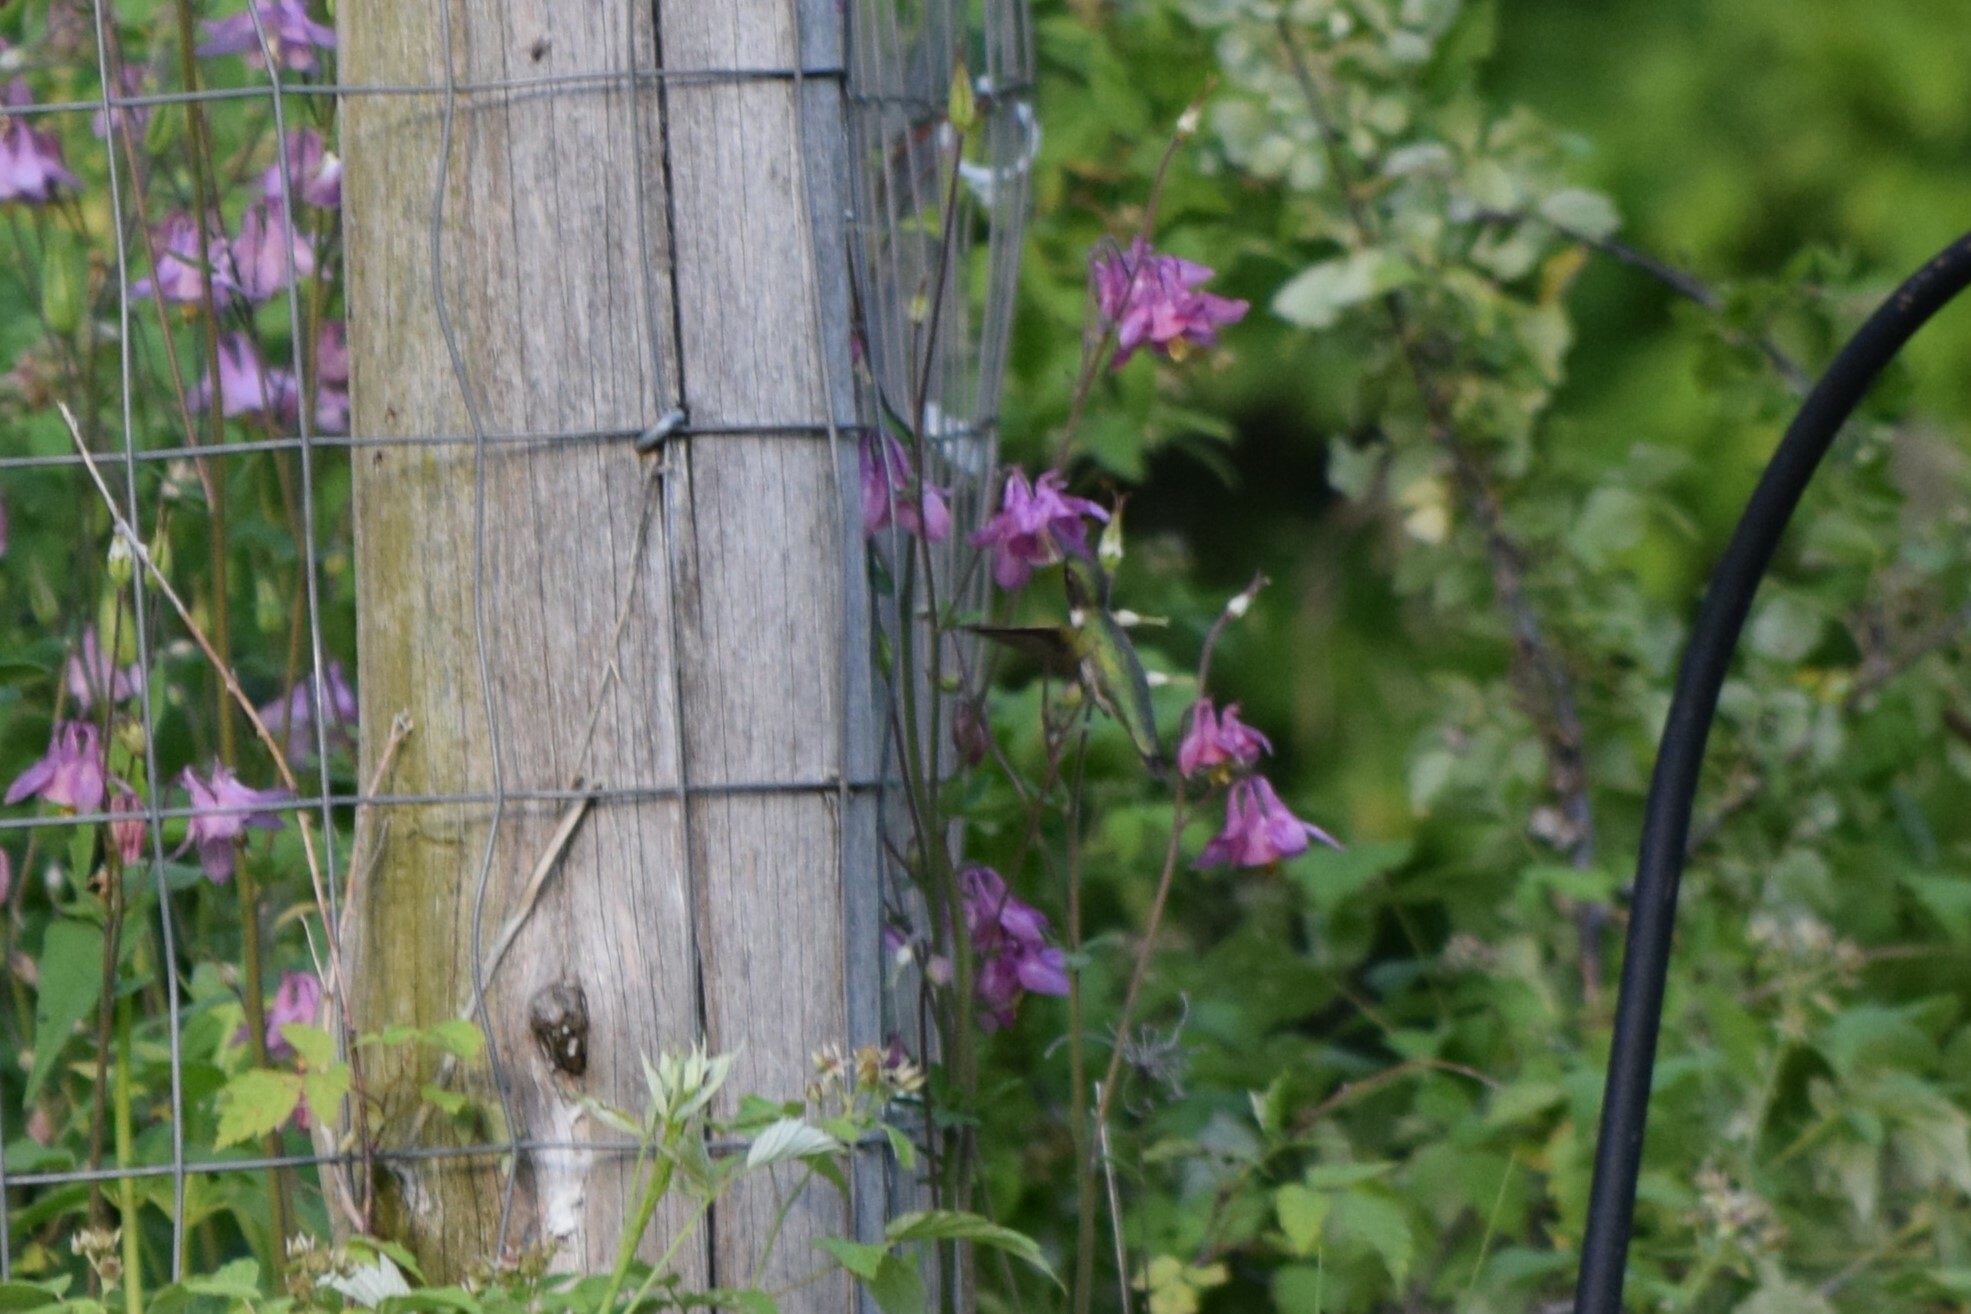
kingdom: Animalia
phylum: Chordata
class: Aves
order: Apodiformes
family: Trochilidae
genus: Archilochus
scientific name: Archilochus colubris
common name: Ruby-throated hummingbird
